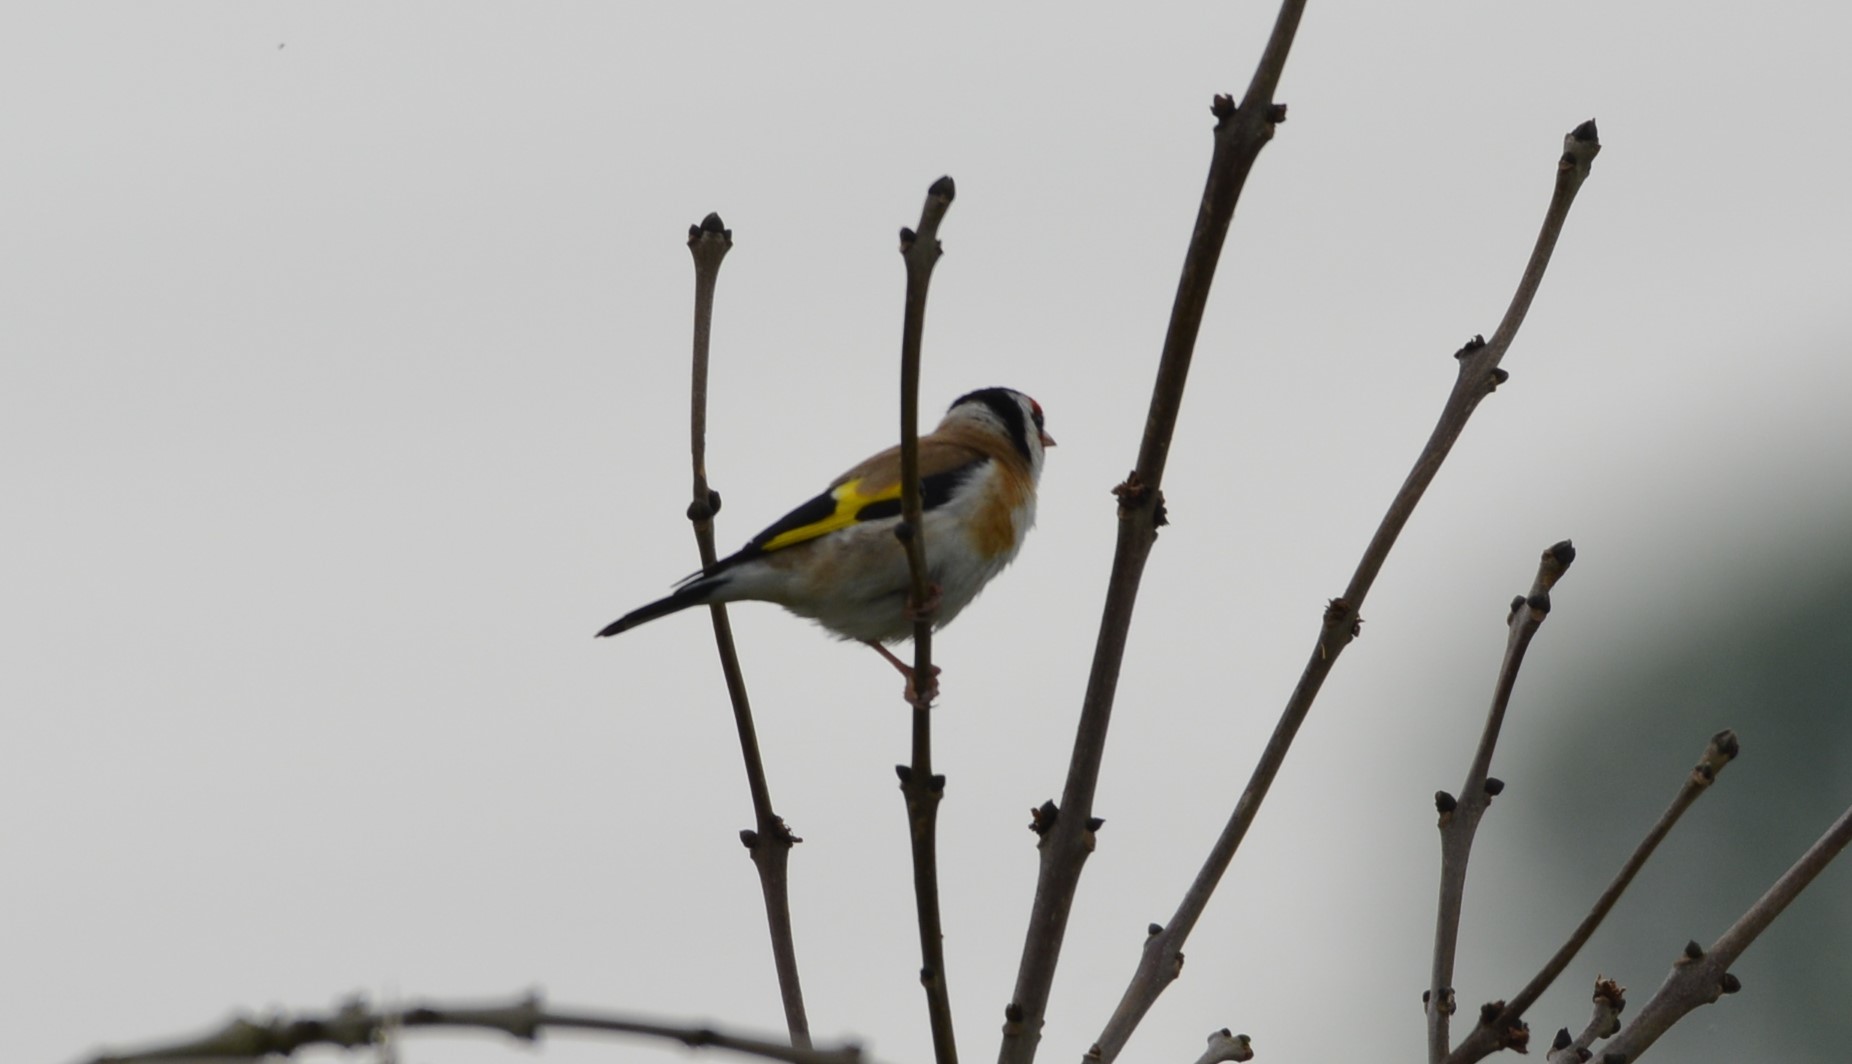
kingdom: Animalia
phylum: Chordata
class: Aves
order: Passeriformes
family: Fringillidae
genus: Carduelis
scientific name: Carduelis carduelis
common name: European goldfinch
